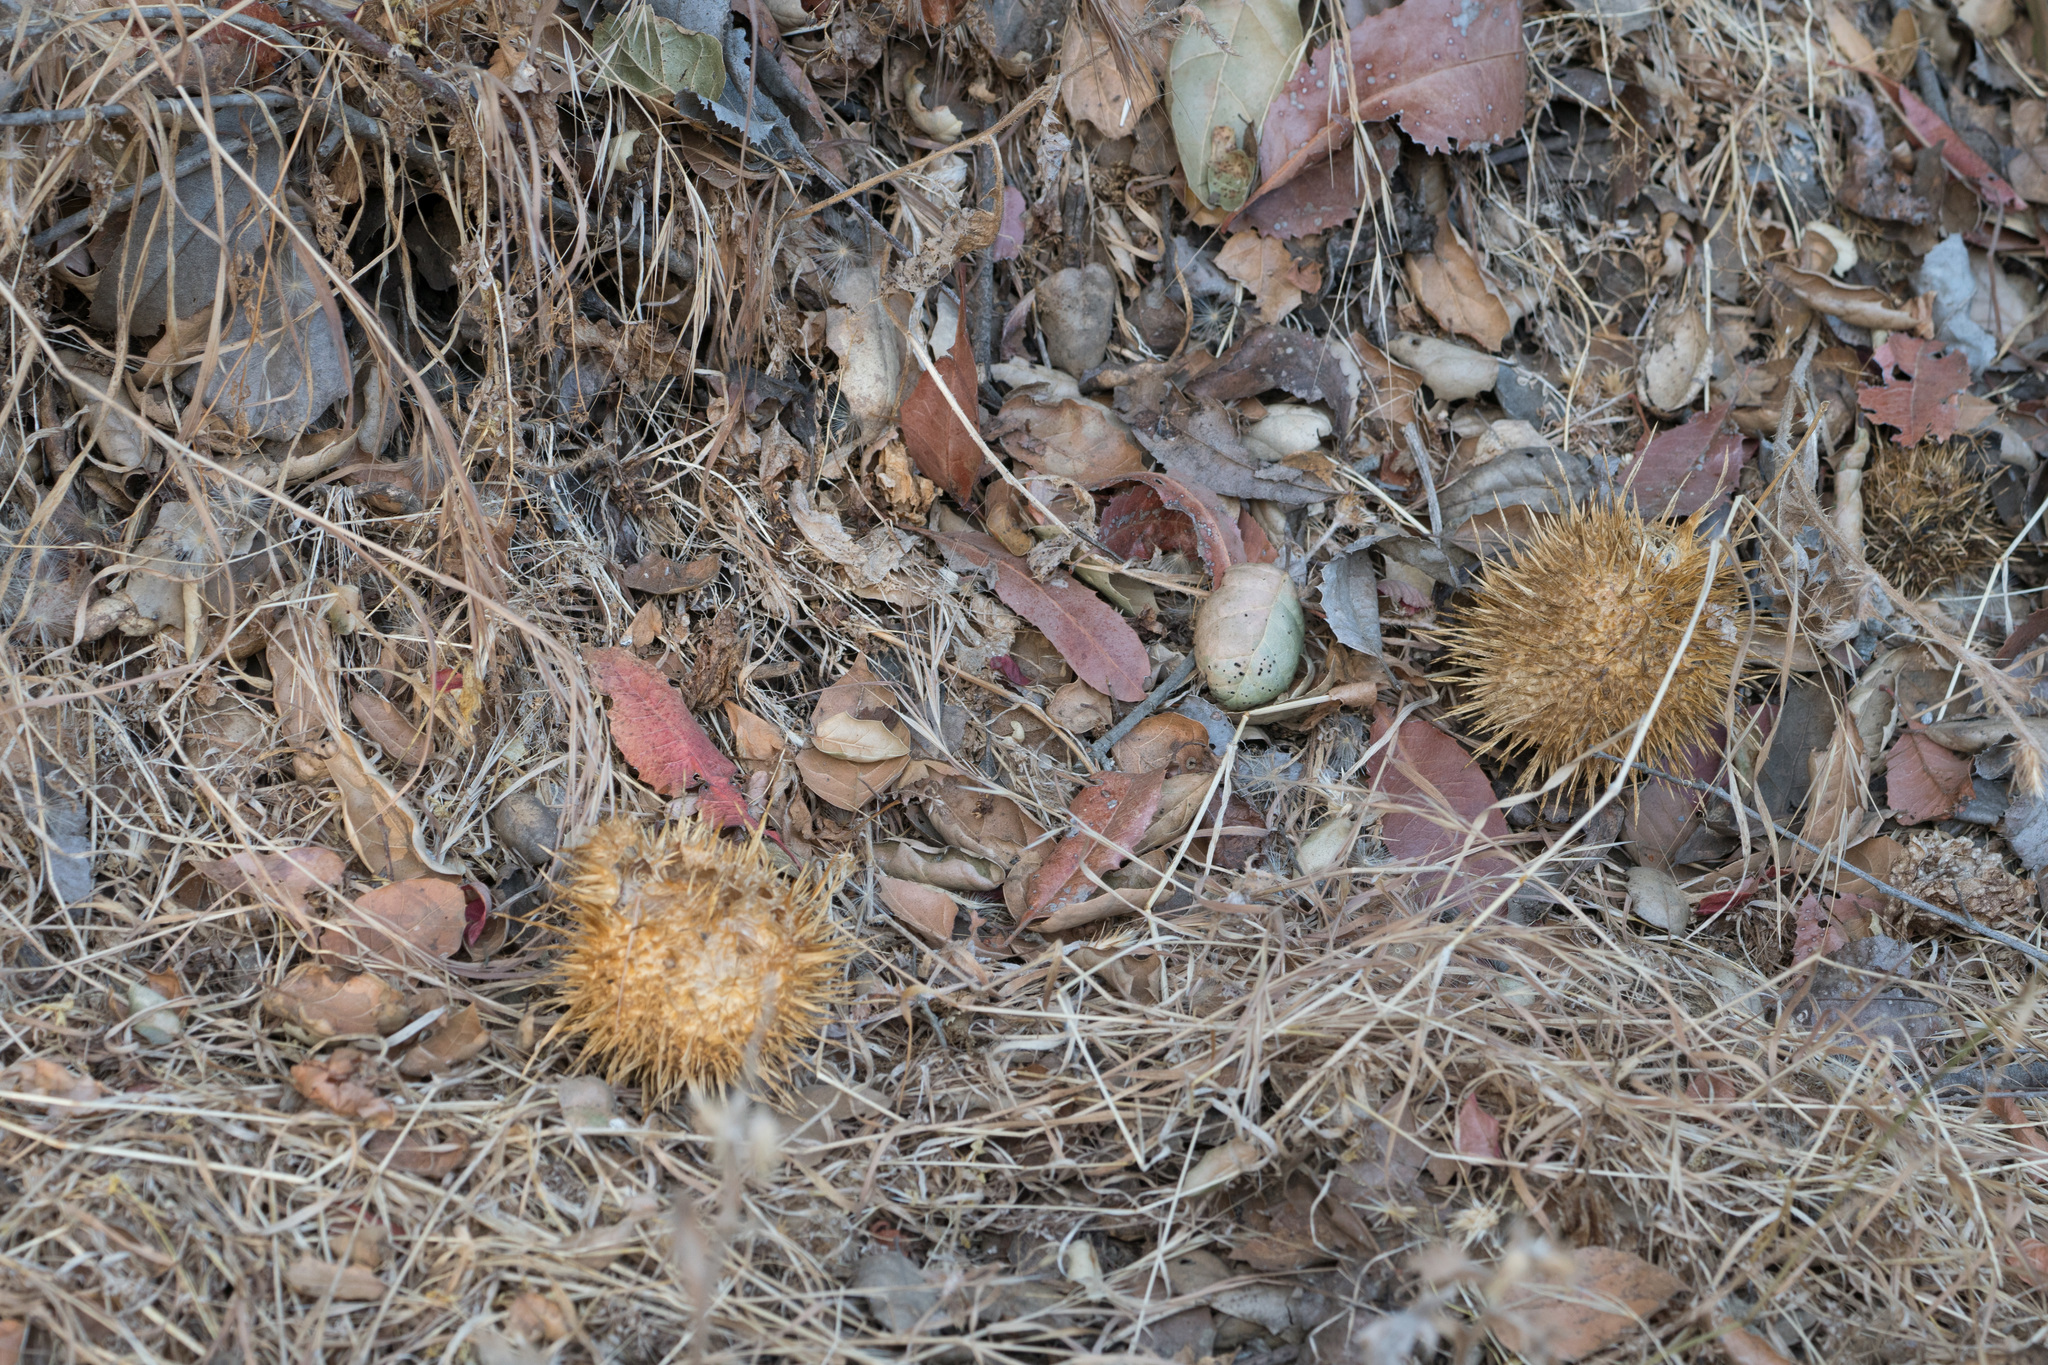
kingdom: Plantae
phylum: Tracheophyta
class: Magnoliopsida
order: Cucurbitales
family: Cucurbitaceae
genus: Marah
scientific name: Marah macrocarpa
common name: Cucamonga manroot
